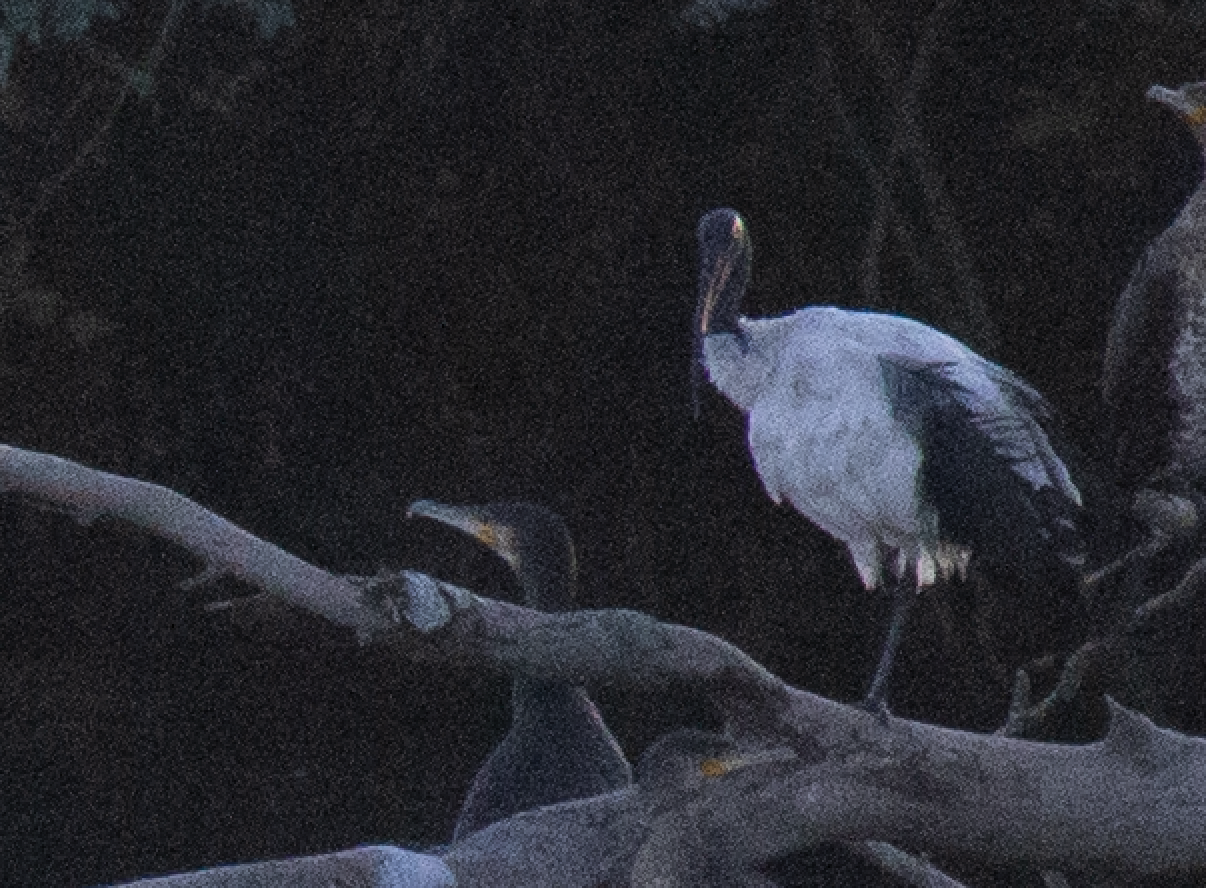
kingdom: Animalia
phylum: Chordata
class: Aves
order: Pelecaniformes
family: Threskiornithidae
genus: Threskiornis
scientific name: Threskiornis aethiopicus
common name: Sacred ibis
